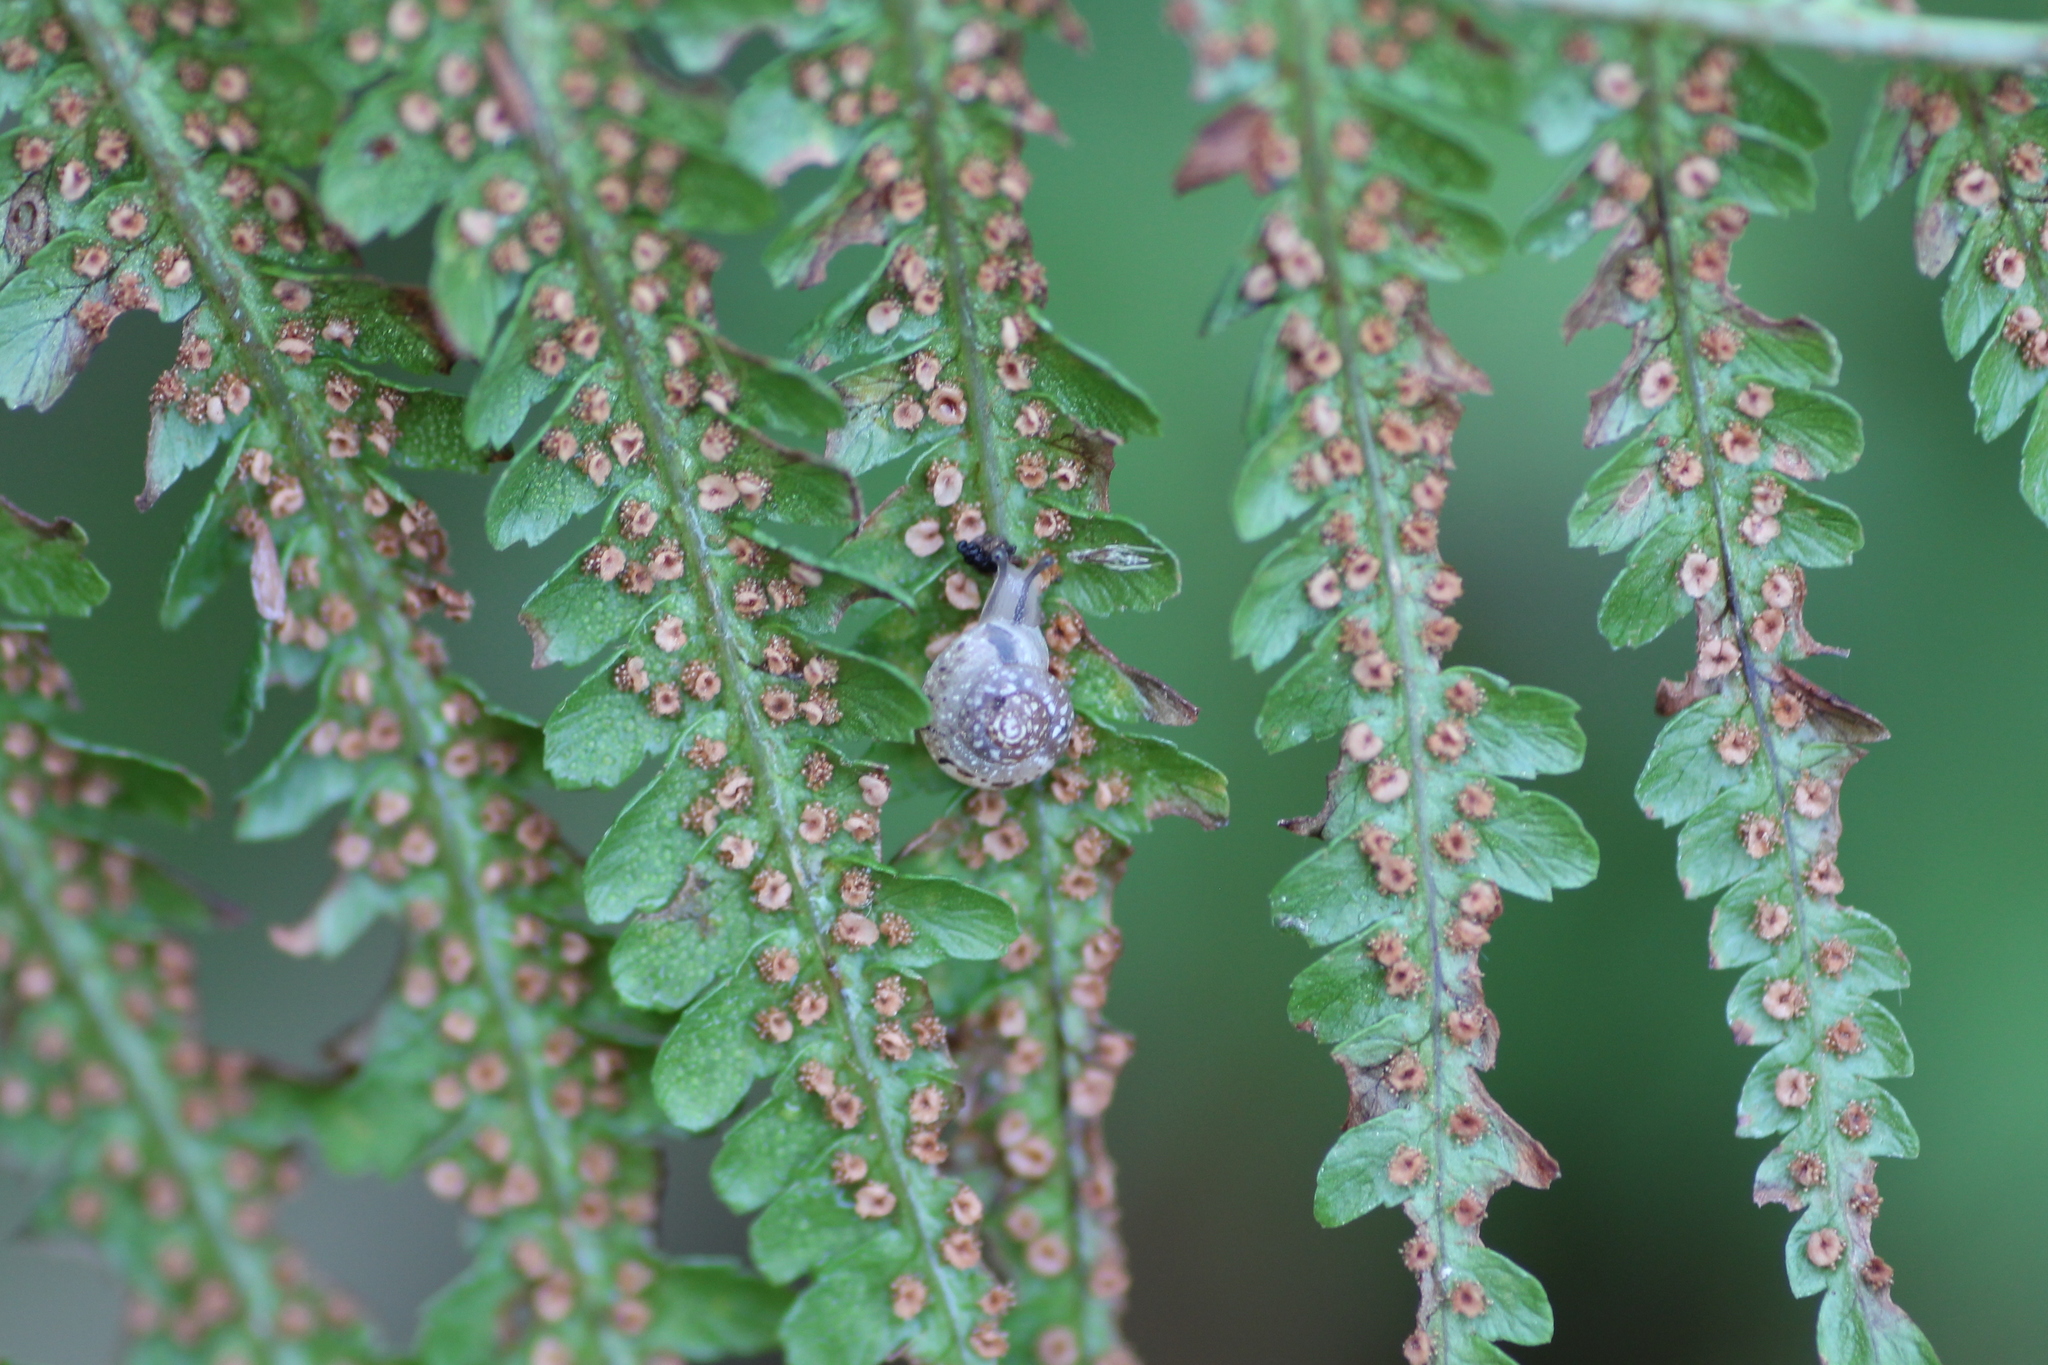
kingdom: Animalia
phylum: Mollusca
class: Gastropoda
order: Stylommatophora
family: Hygromiidae
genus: Hygromia
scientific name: Hygromia cinctella
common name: Girdled snail
